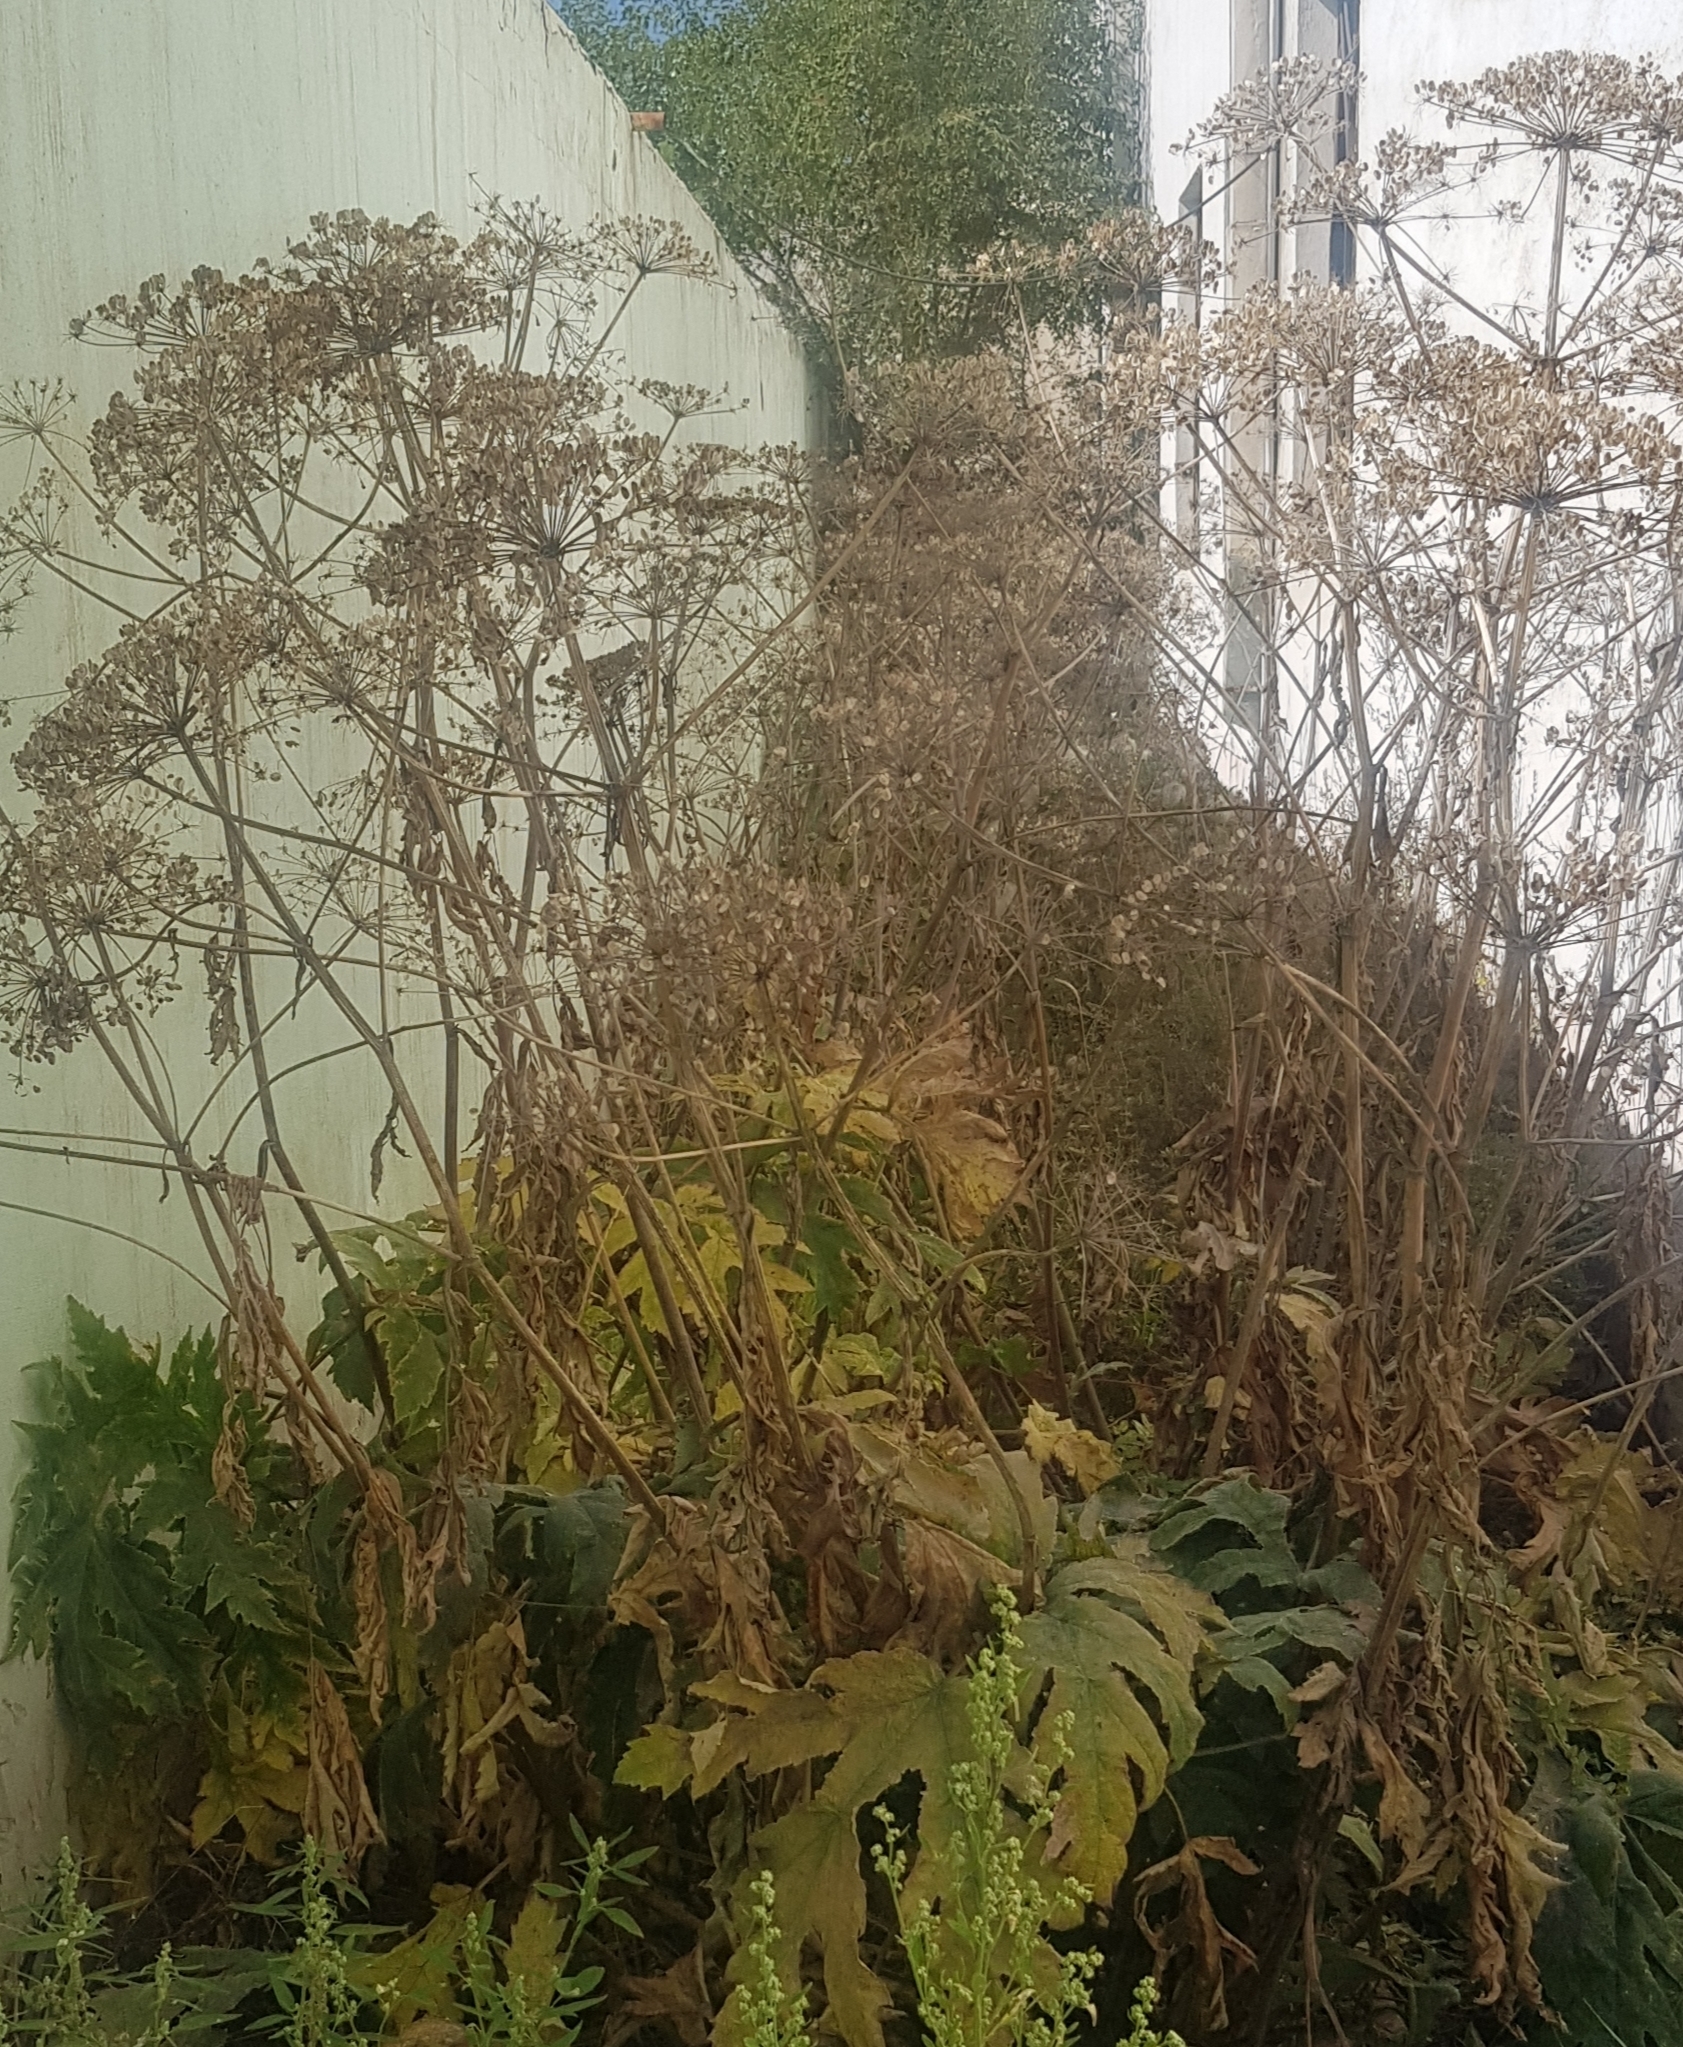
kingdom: Plantae
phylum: Tracheophyta
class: Magnoliopsida
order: Apiales
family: Apiaceae
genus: Heracleum
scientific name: Heracleum dissectum
